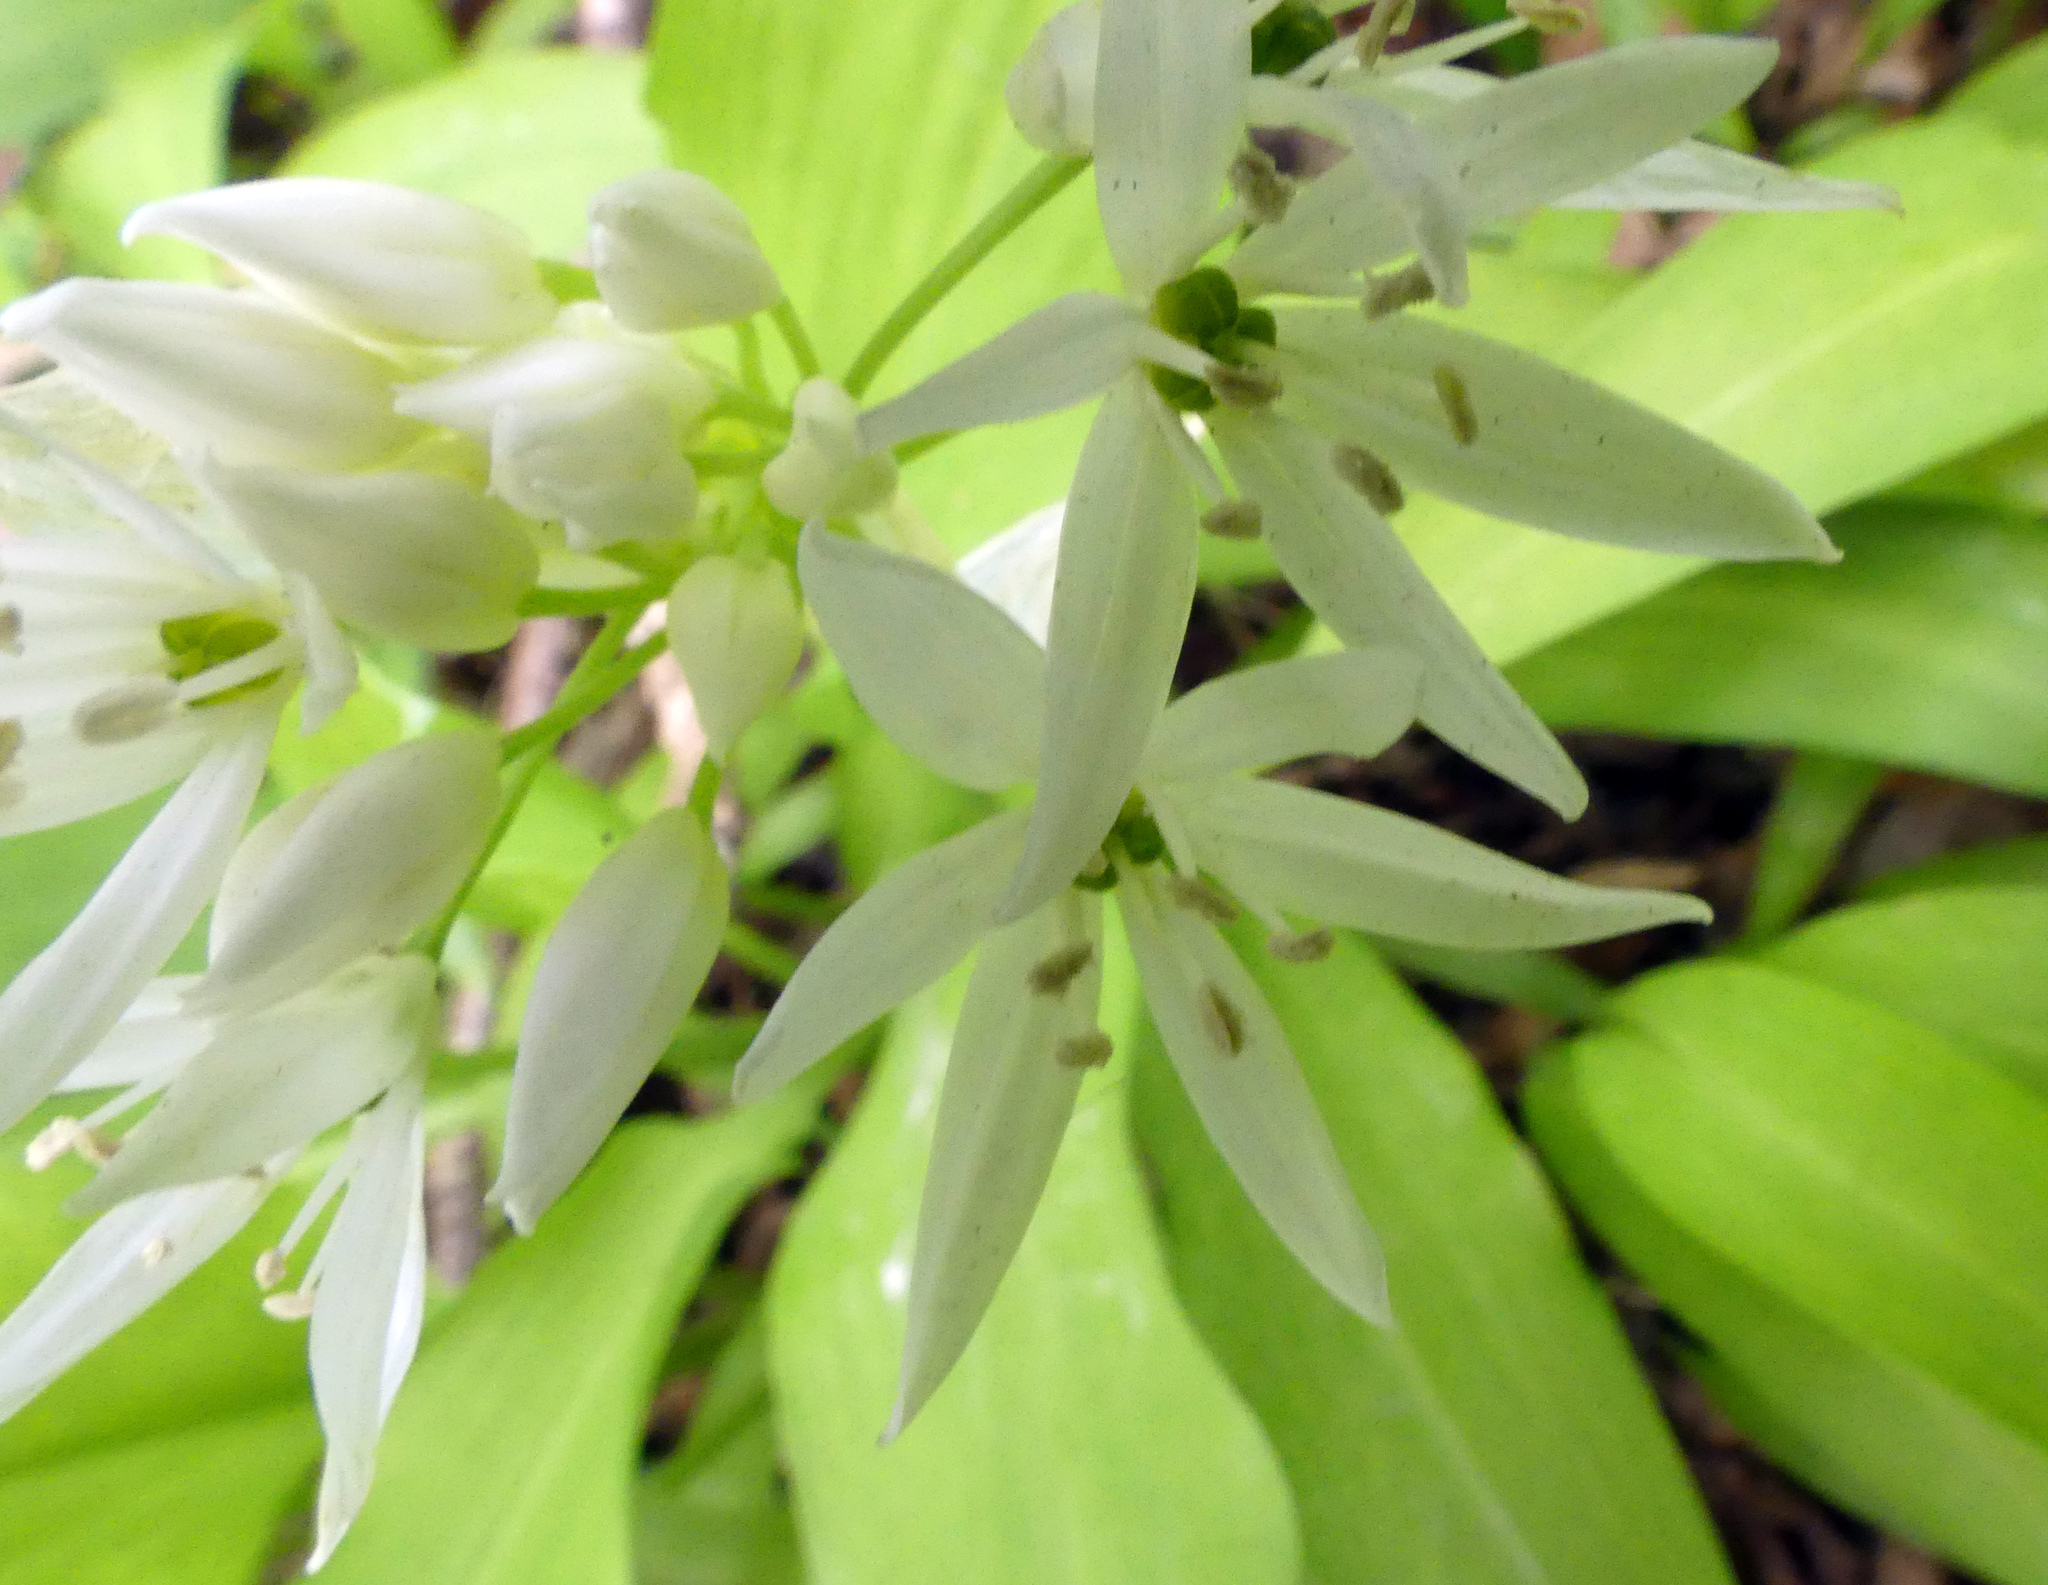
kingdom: Plantae
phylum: Tracheophyta
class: Liliopsida
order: Asparagales
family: Amaryllidaceae
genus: Allium
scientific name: Allium ursinum
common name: Ramsons
